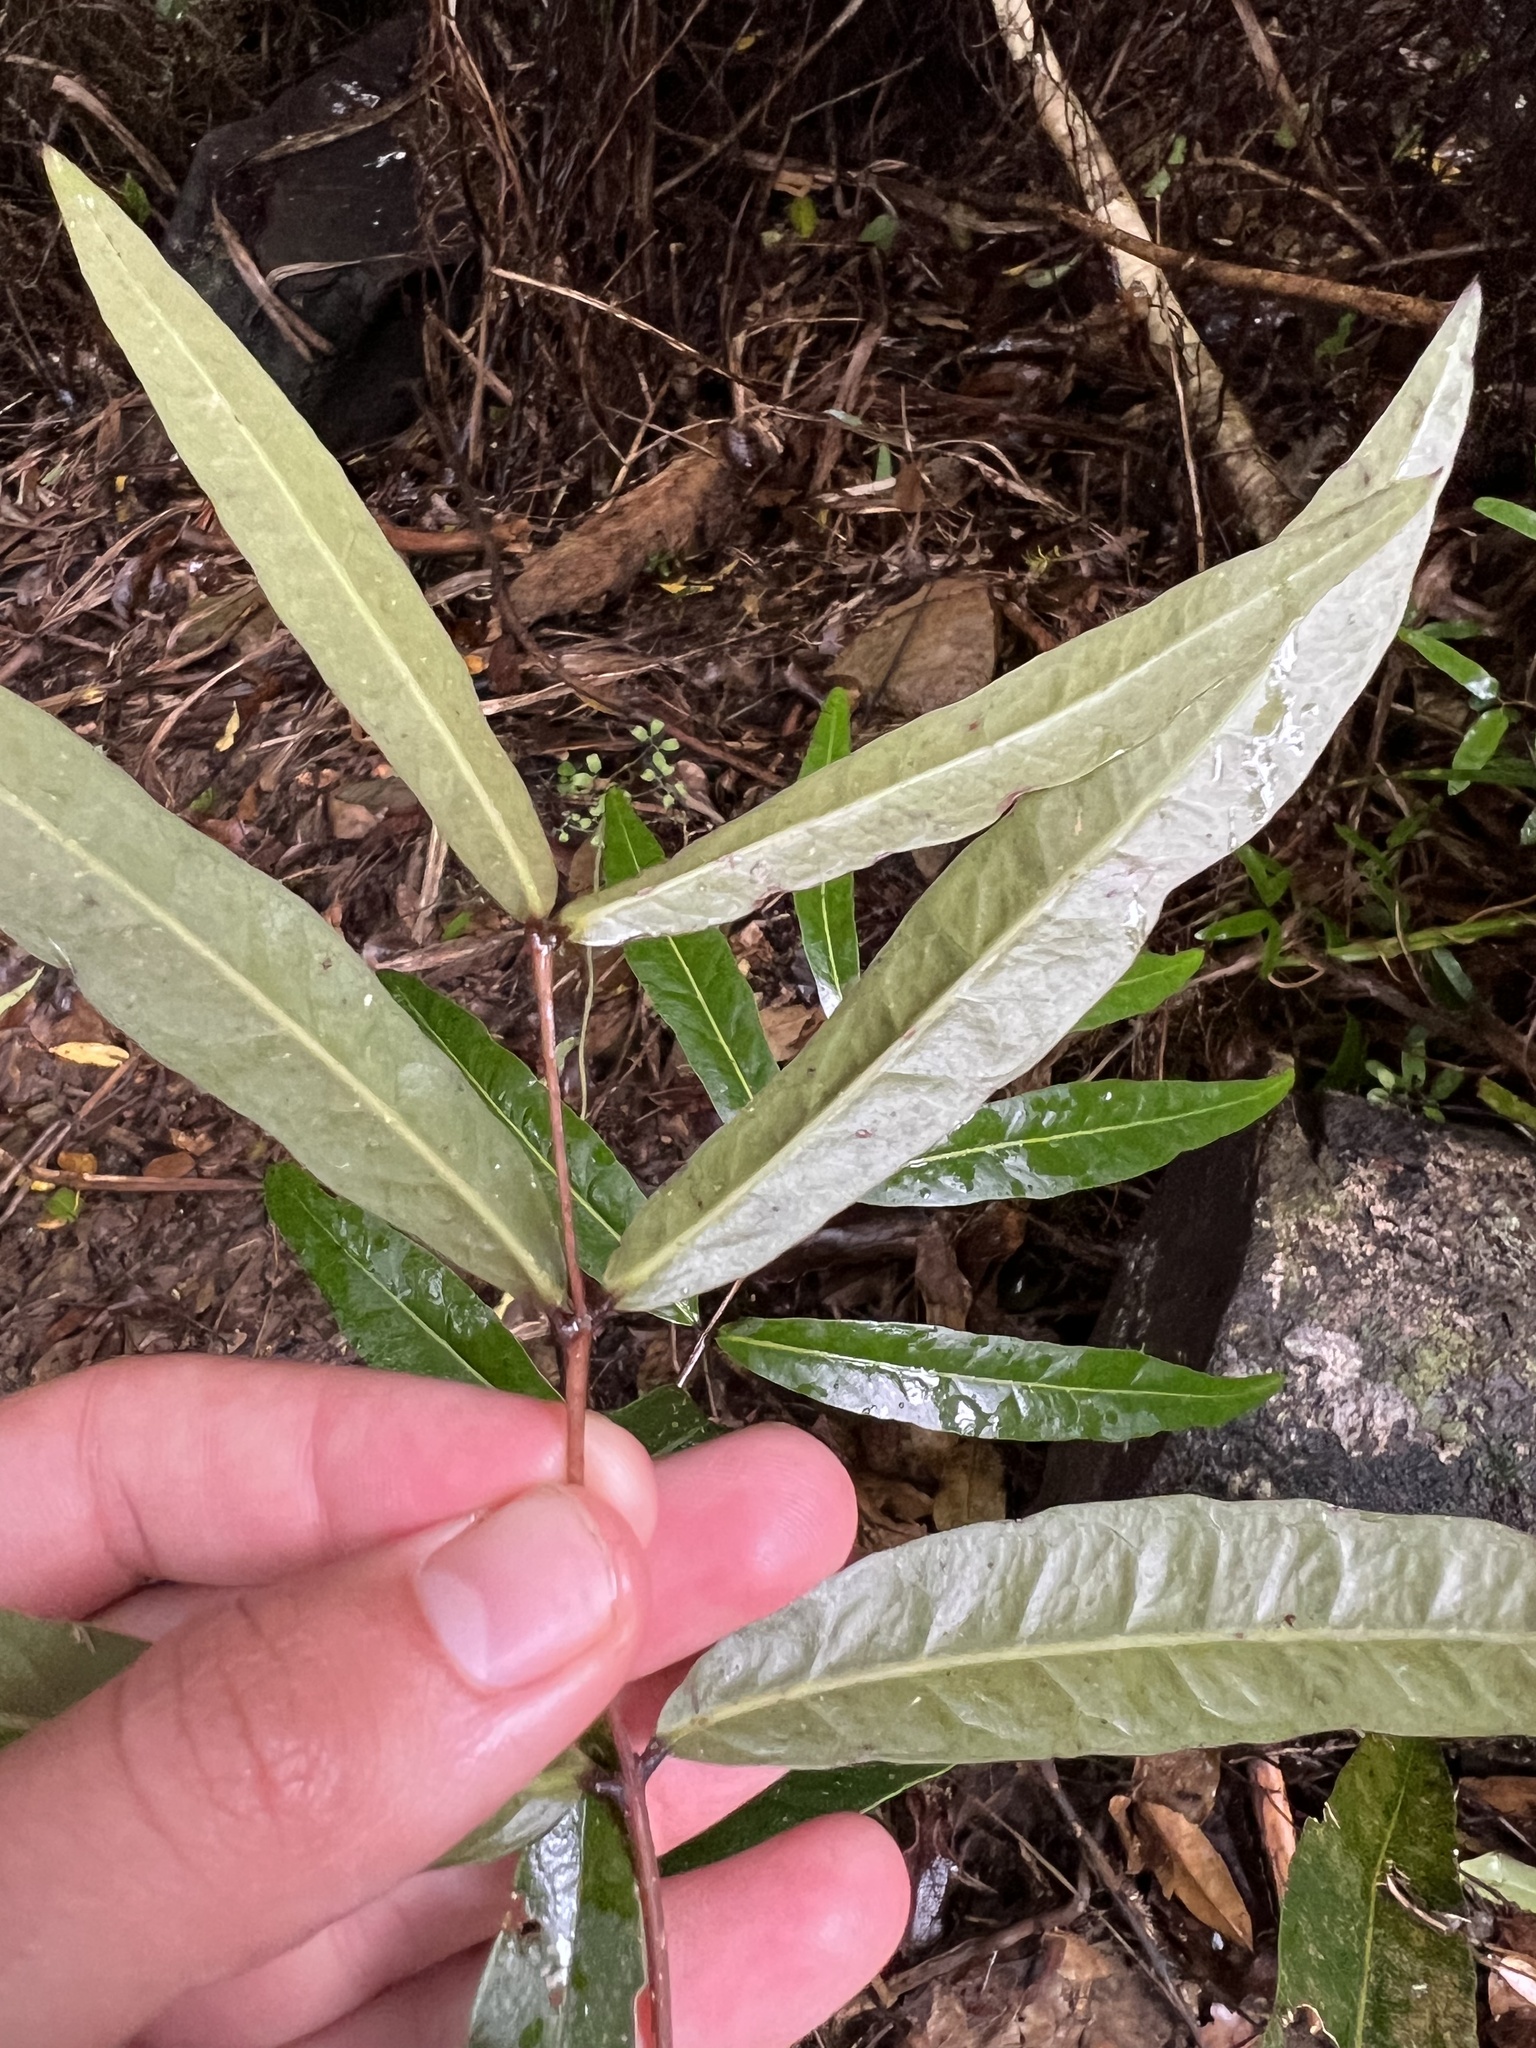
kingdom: Plantae
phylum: Tracheophyta
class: Magnoliopsida
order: Santalales
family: Nanodeaceae
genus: Mida
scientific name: Mida salicifolia
